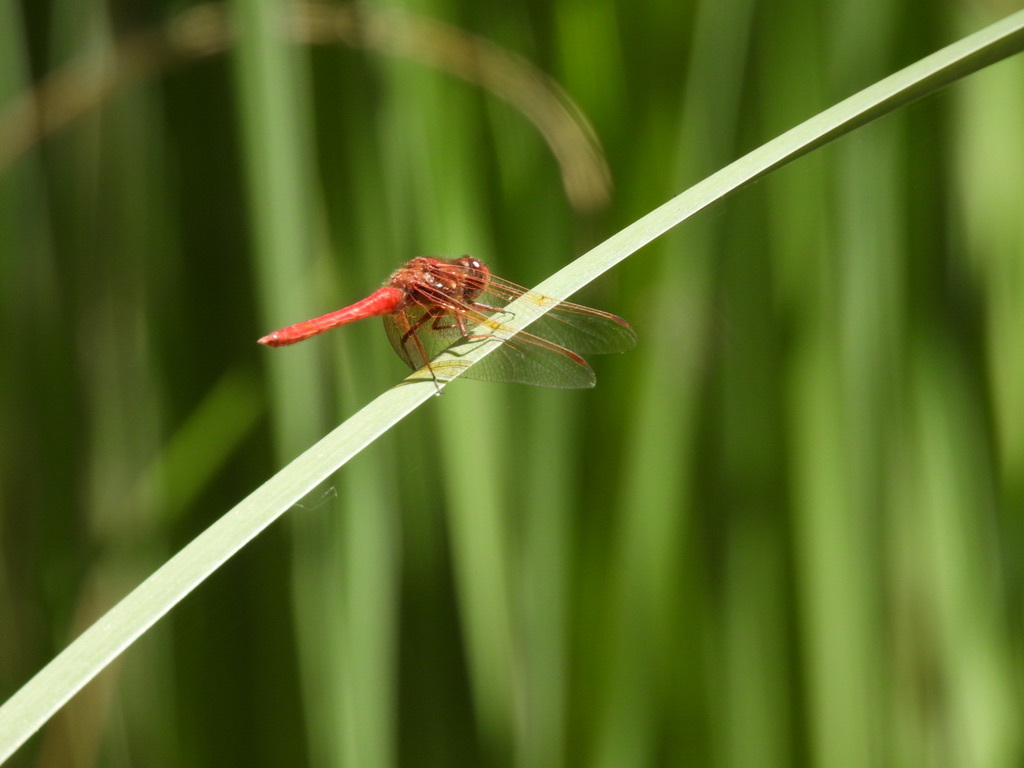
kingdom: Animalia
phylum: Arthropoda
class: Insecta
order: Odonata
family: Libellulidae
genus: Sympetrum
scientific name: Sympetrum illotum
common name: Cardinal meadowhawk
